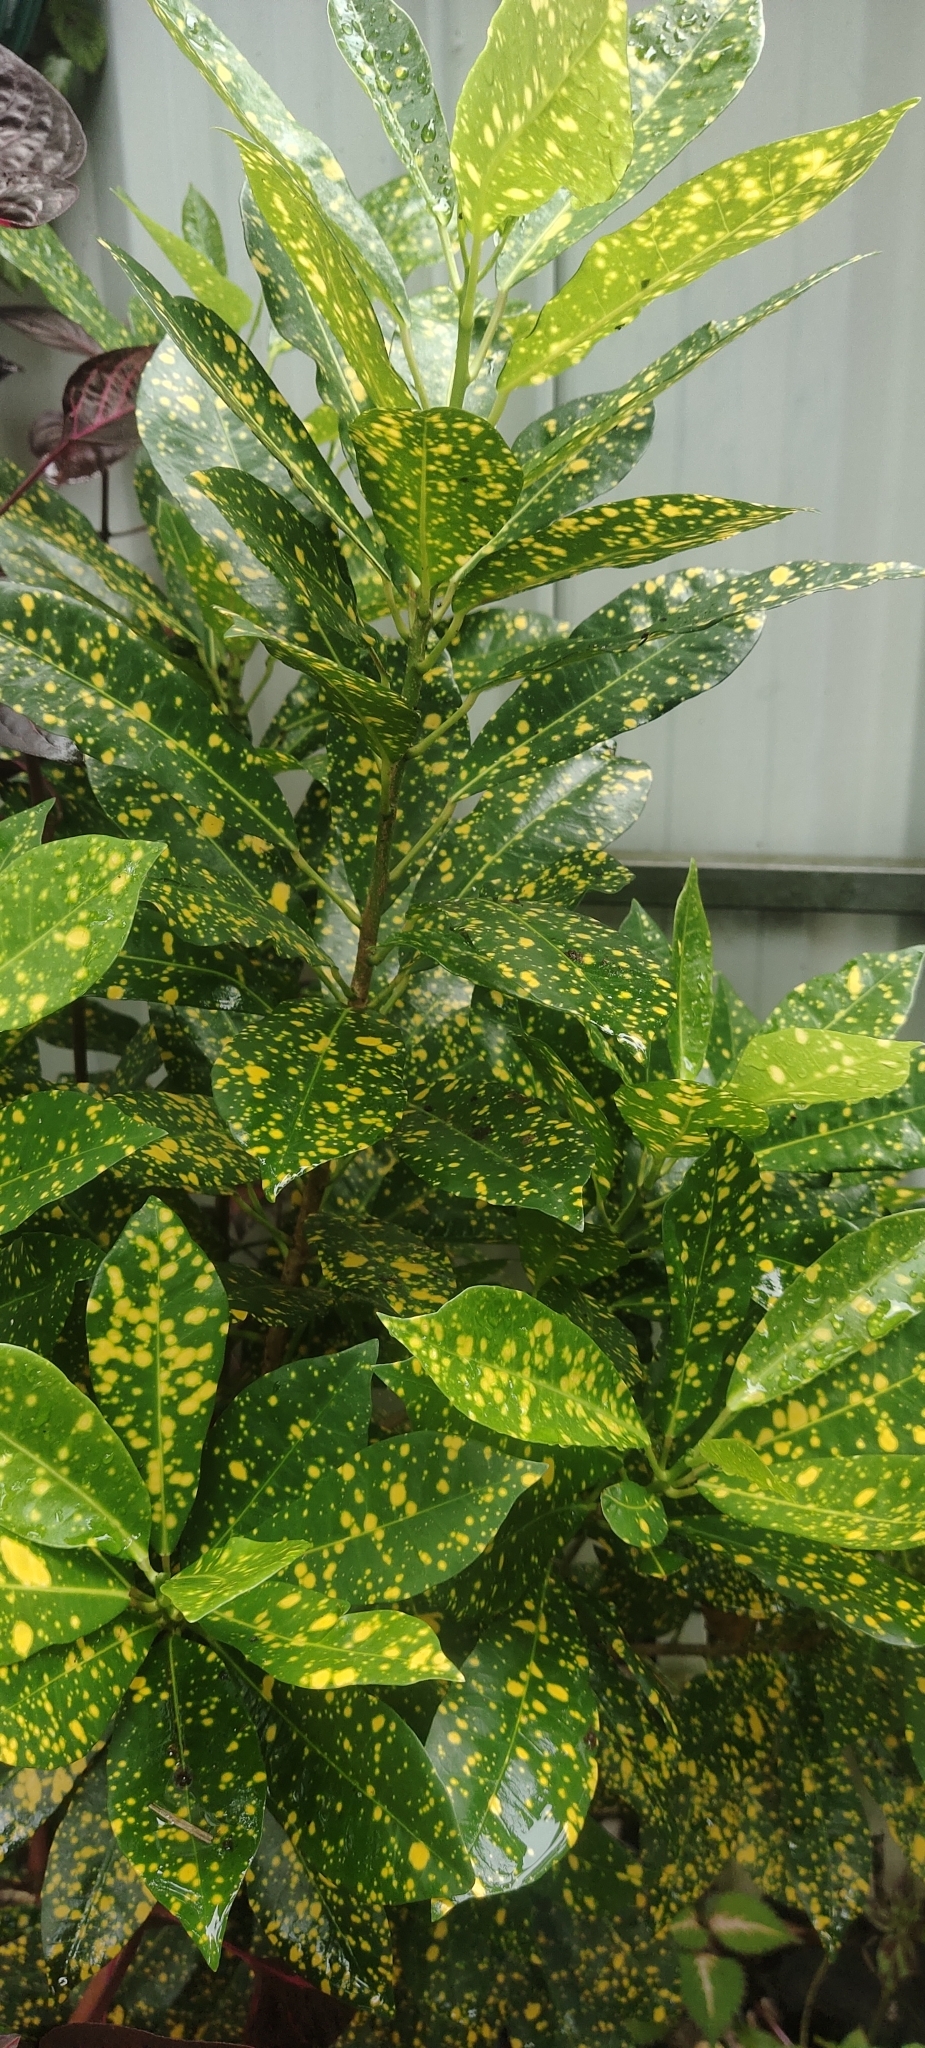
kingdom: Plantae
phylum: Tracheophyta
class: Magnoliopsida
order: Malpighiales
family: Euphorbiaceae
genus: Codiaeum
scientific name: Codiaeum variegatum
